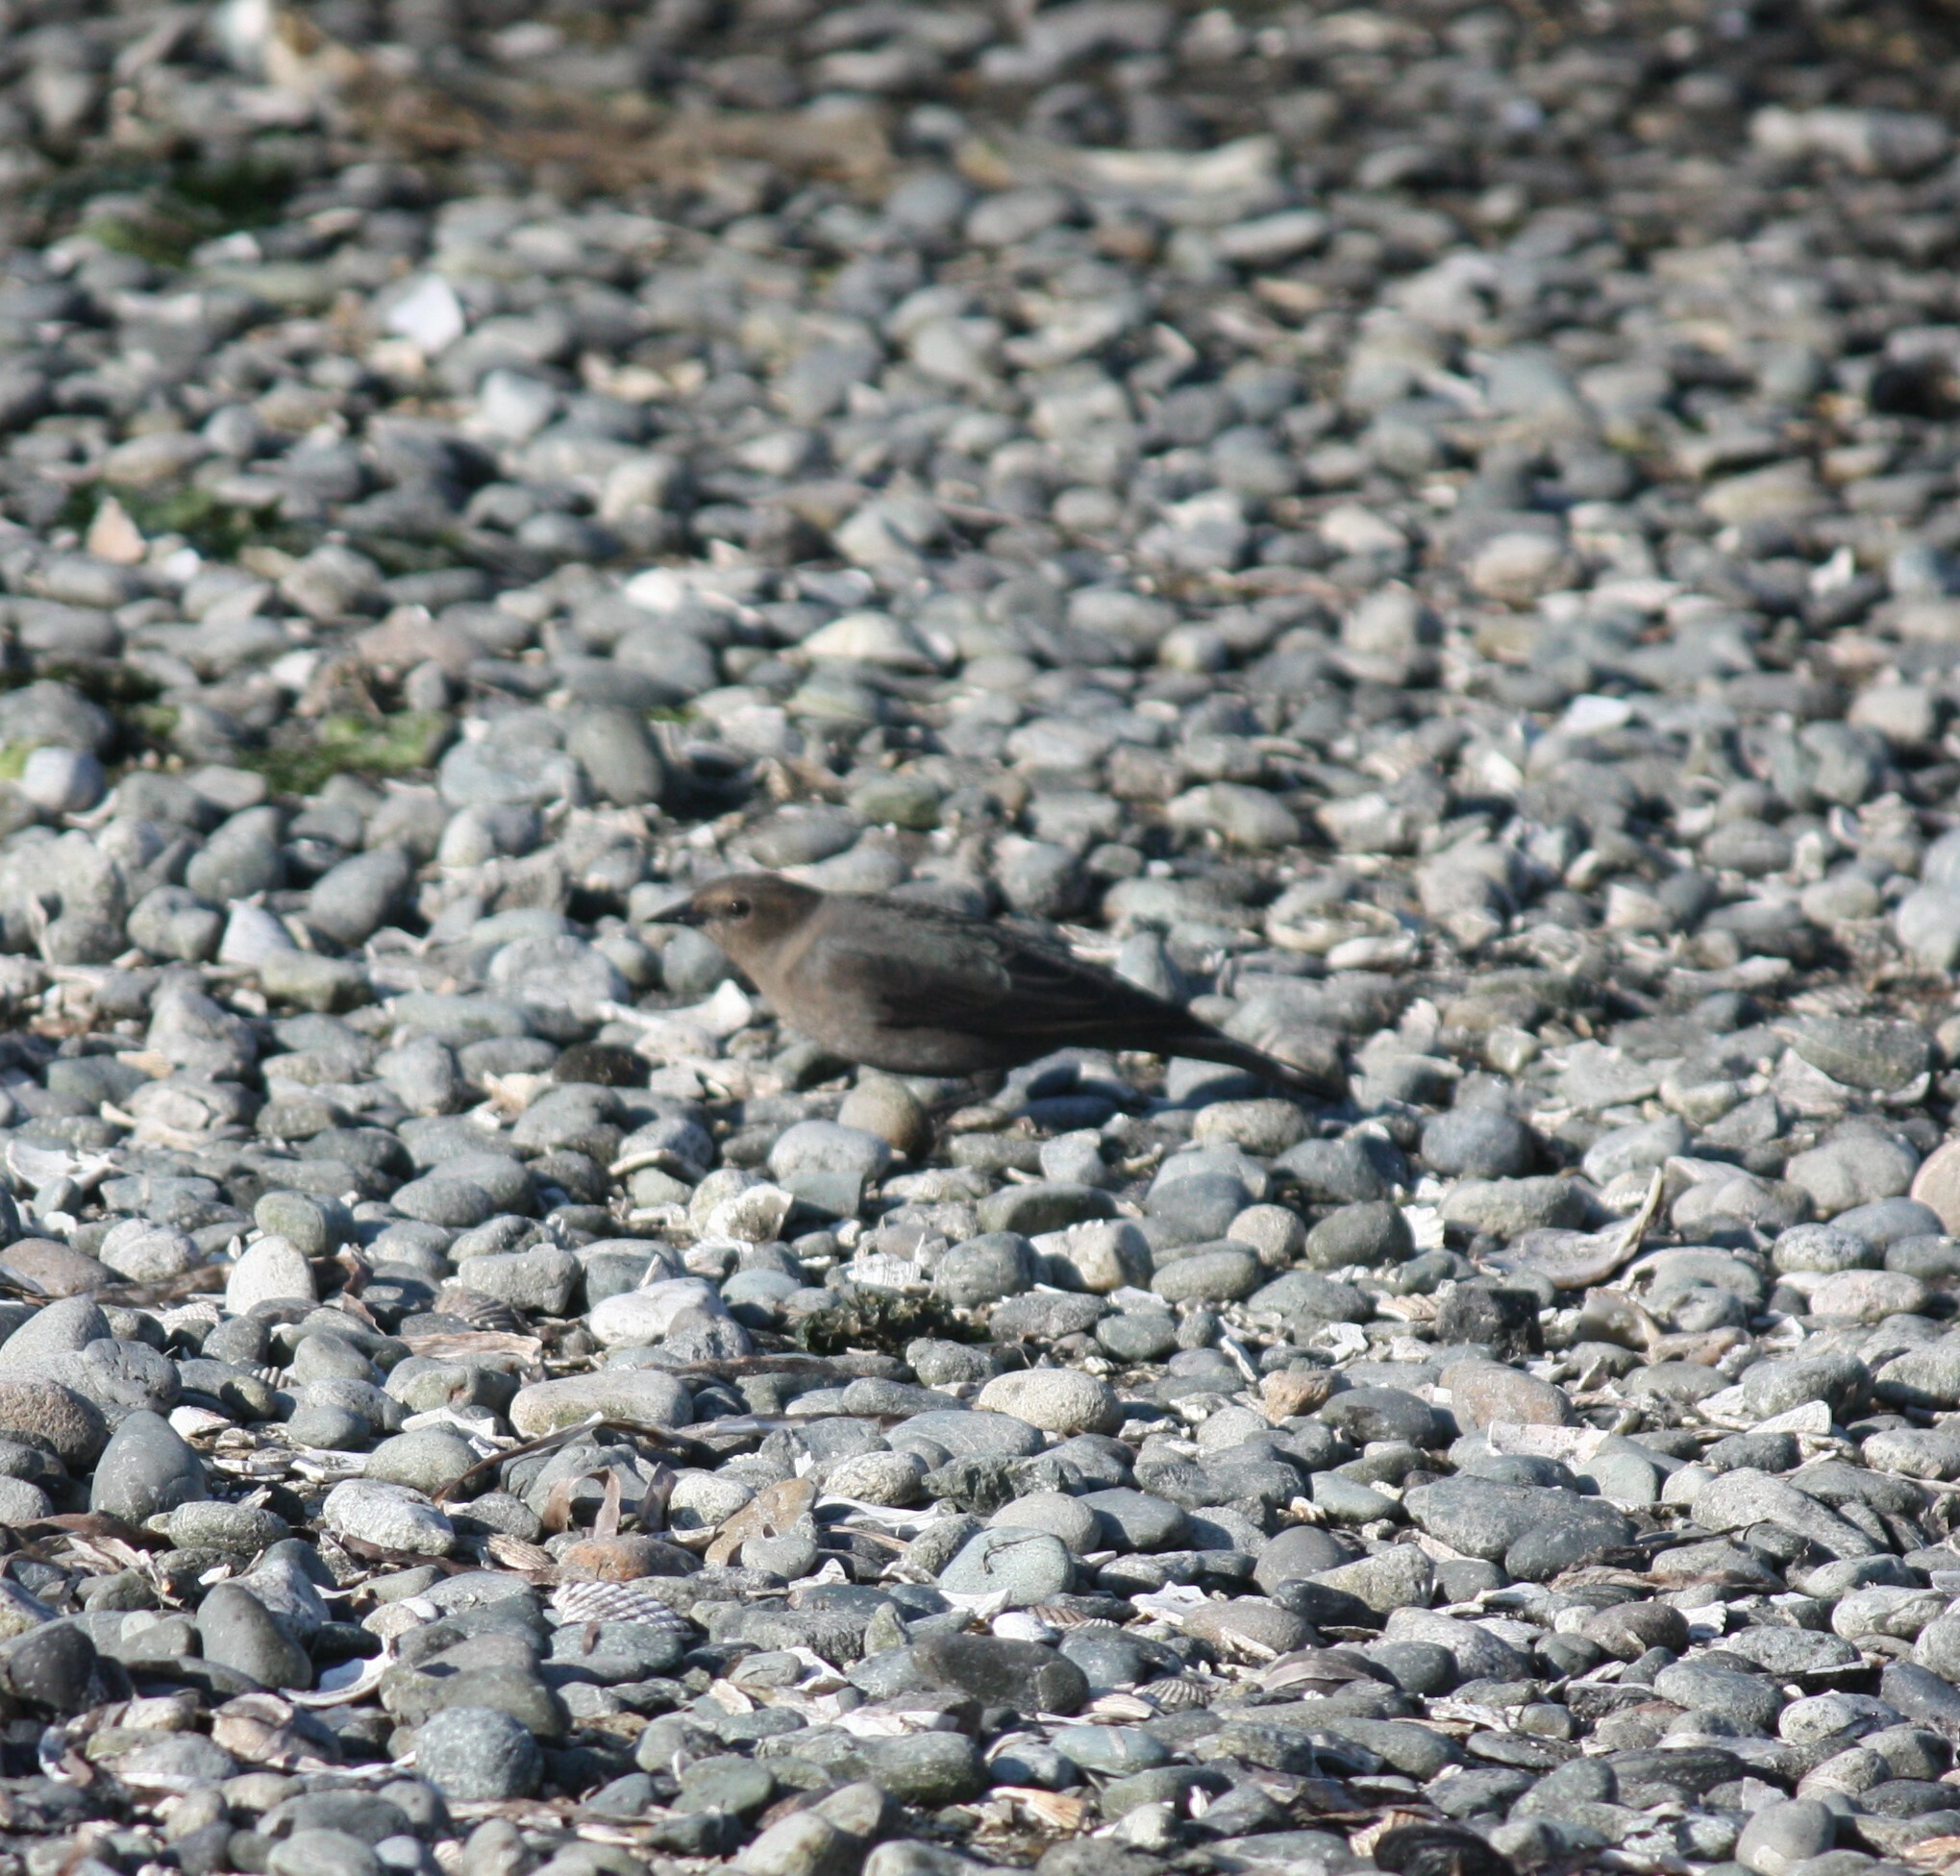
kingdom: Animalia
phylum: Chordata
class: Aves
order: Passeriformes
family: Icteridae
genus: Euphagus
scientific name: Euphagus cyanocephalus
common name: Brewer's blackbird
